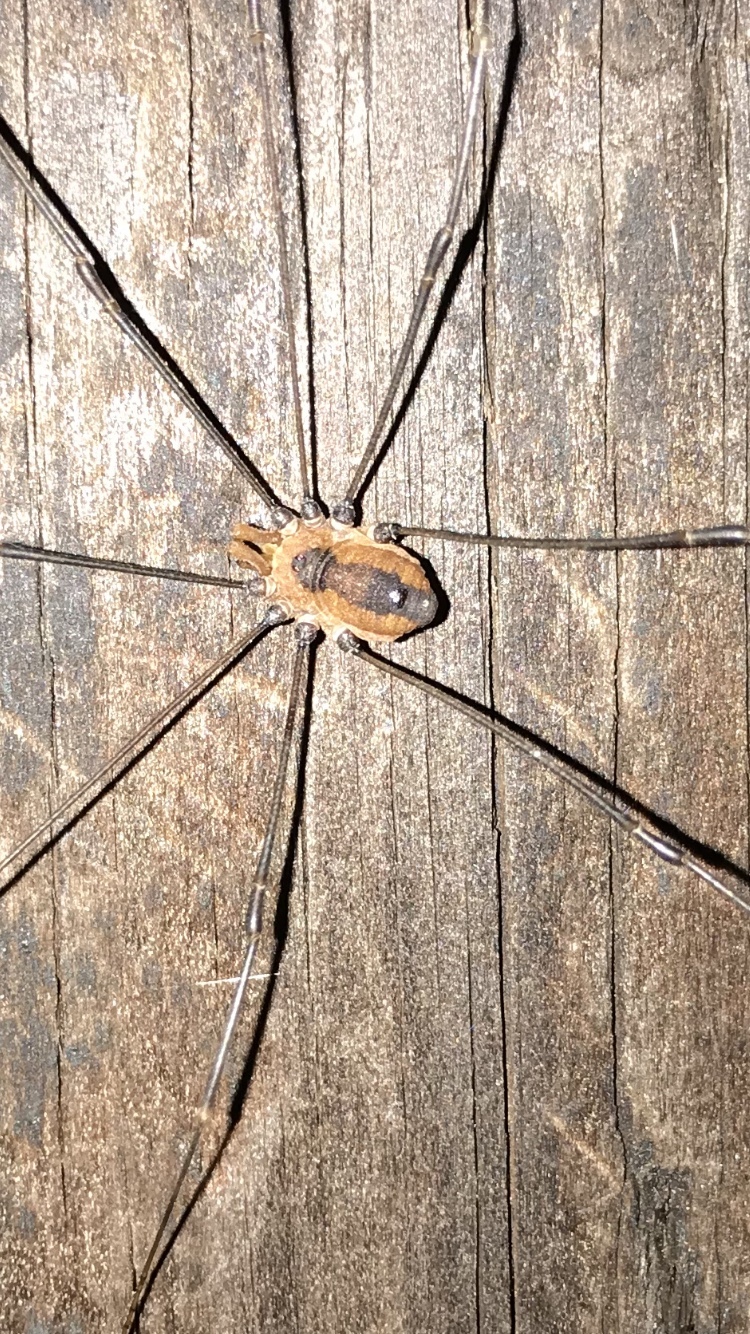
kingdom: Animalia
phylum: Arthropoda
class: Arachnida
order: Opiliones
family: Sclerosomatidae
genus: Leiobunum
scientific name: Leiobunum vittatum
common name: Eastern harvestman
